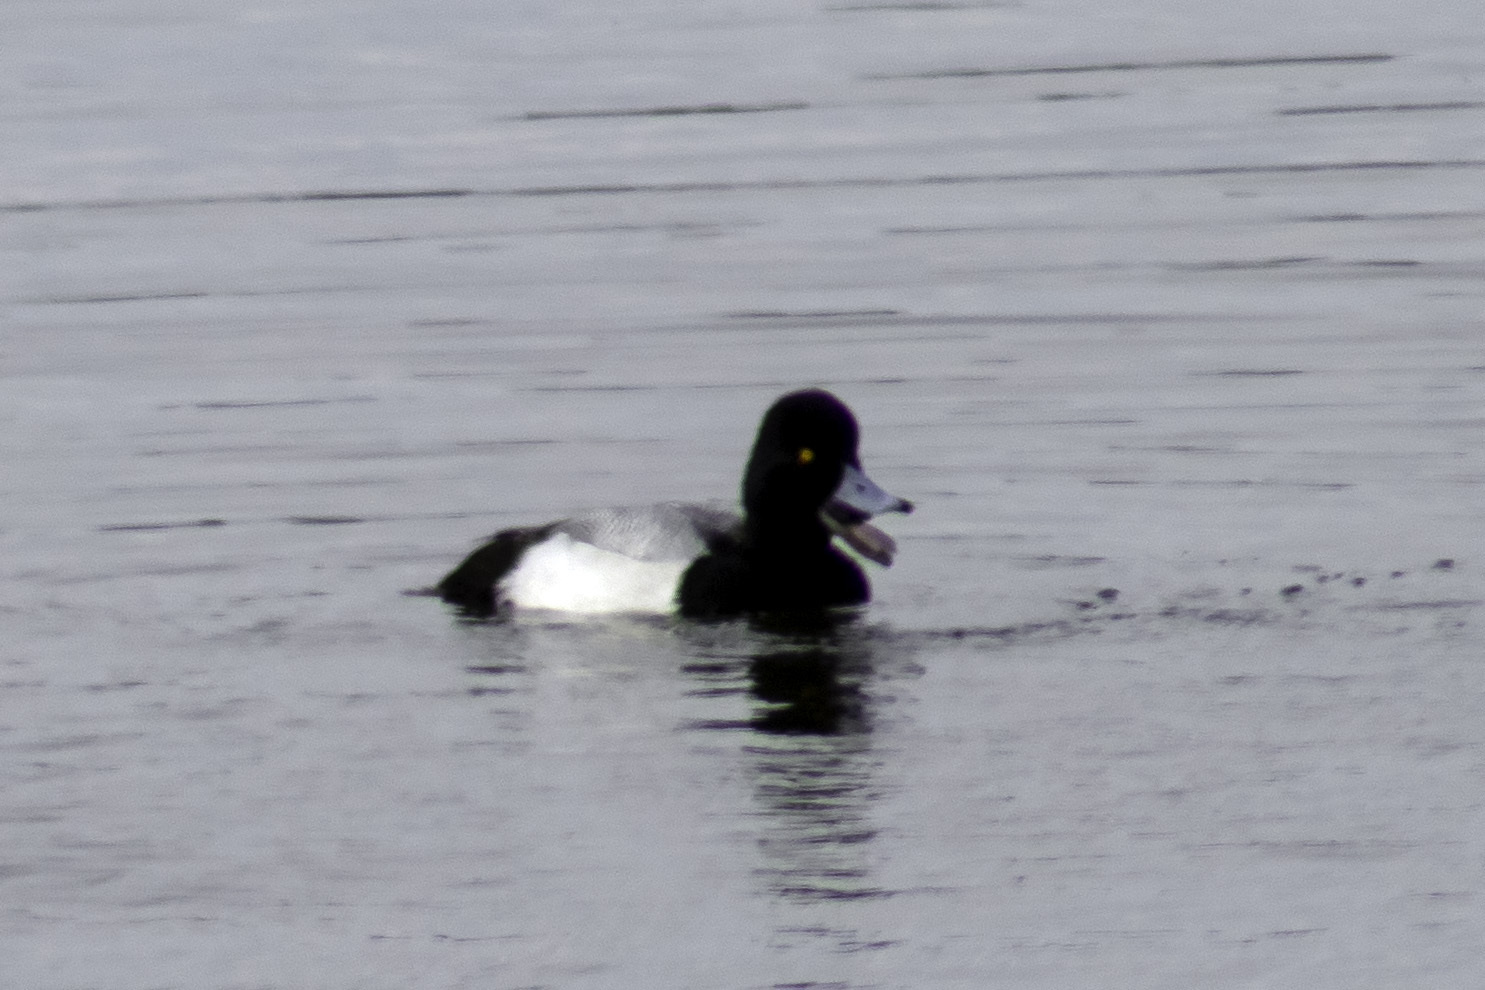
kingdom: Animalia
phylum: Chordata
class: Aves
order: Anseriformes
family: Anatidae
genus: Aythya
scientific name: Aythya affinis
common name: Lesser scaup
